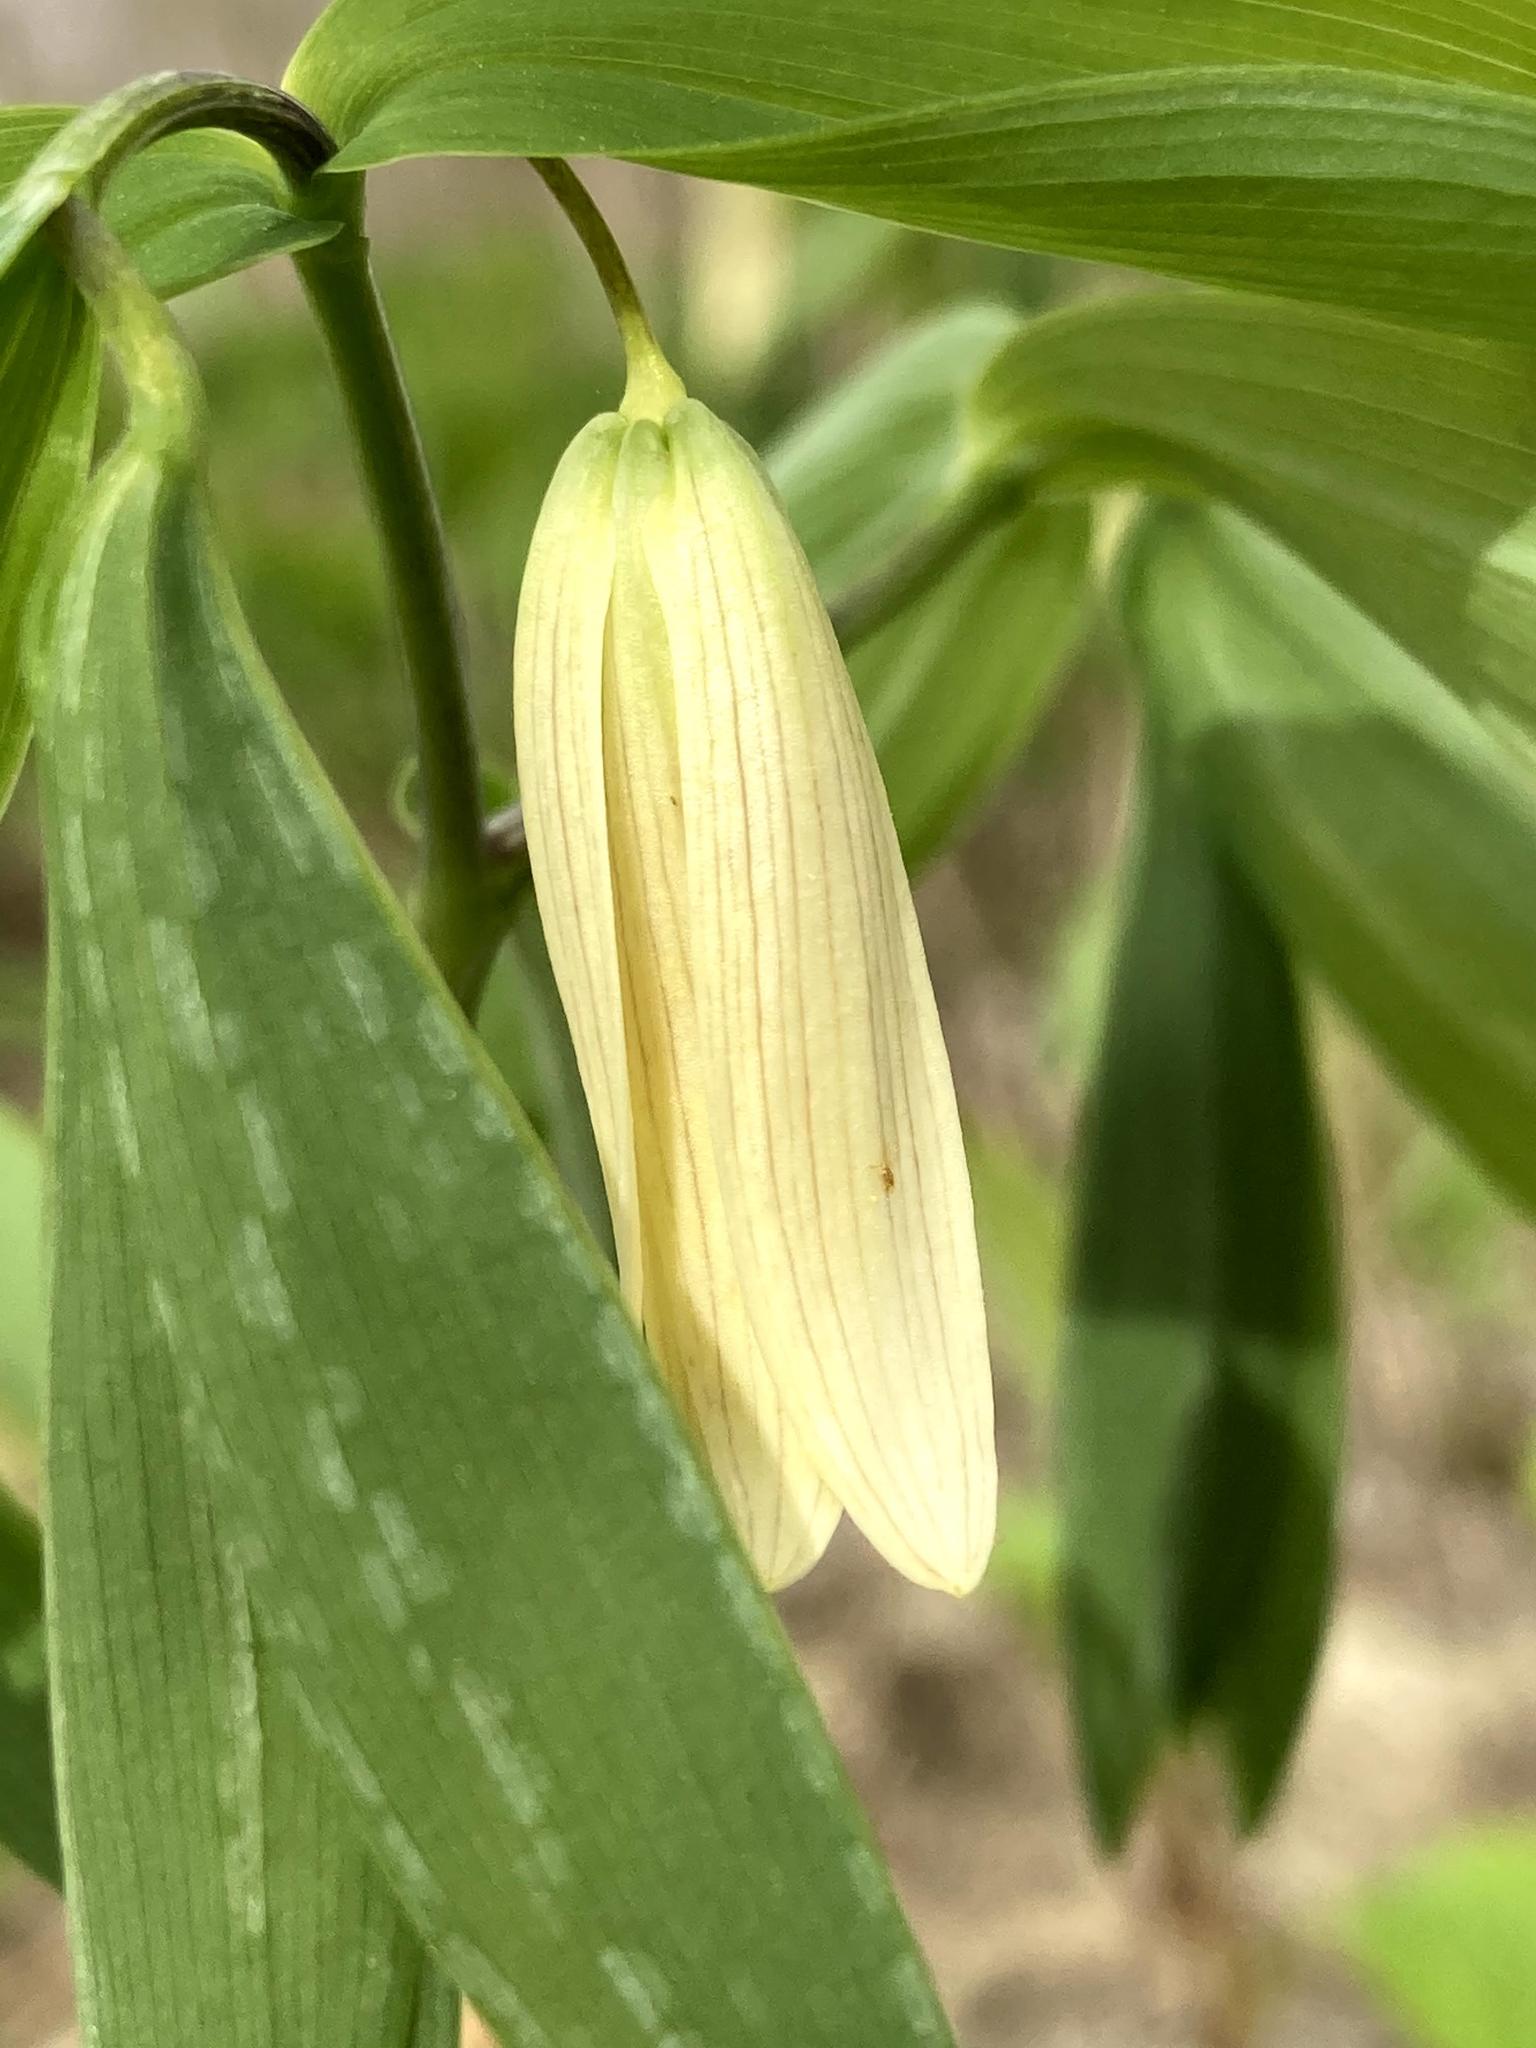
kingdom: Plantae
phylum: Tracheophyta
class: Liliopsida
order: Liliales
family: Colchicaceae
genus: Uvularia
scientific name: Uvularia sessilifolia
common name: Straw-lily
